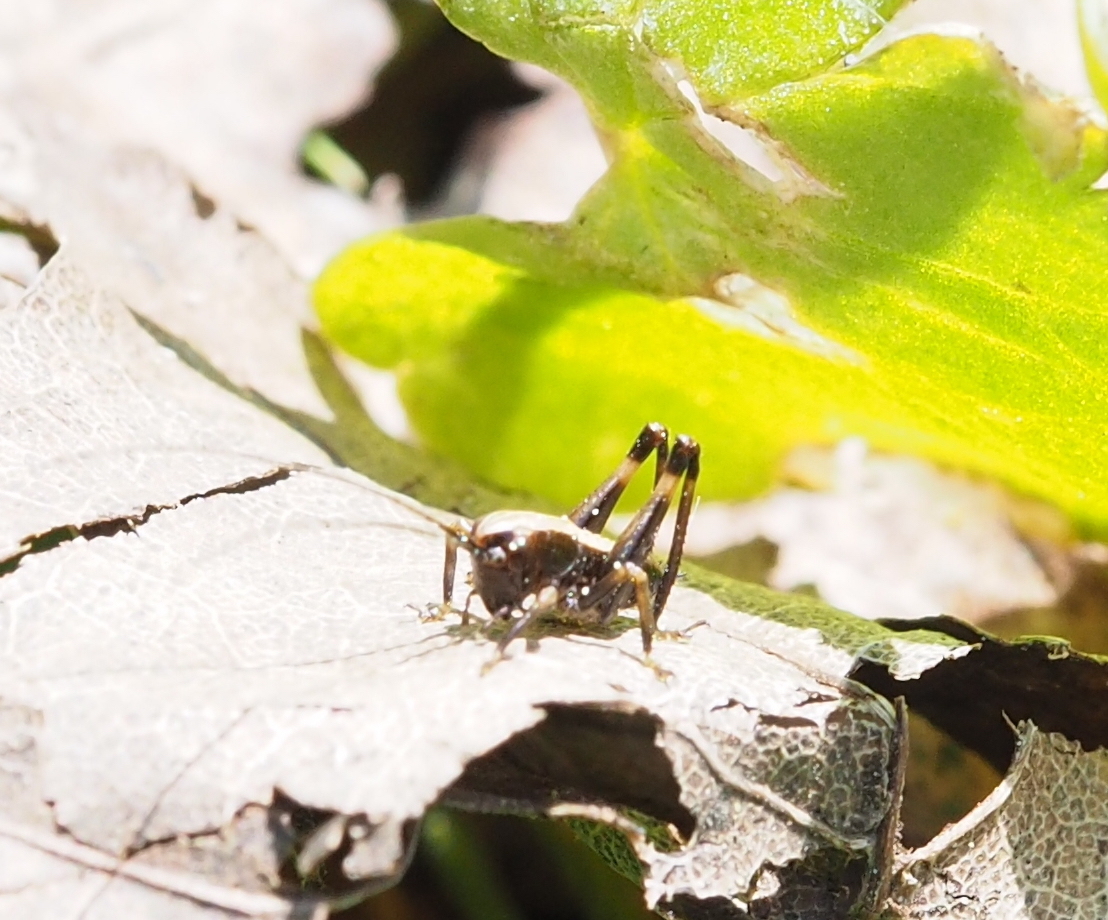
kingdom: Animalia
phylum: Arthropoda
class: Insecta
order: Orthoptera
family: Tettigoniidae
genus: Pholidoptera
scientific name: Pholidoptera griseoaptera
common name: Dark bush-cricket
